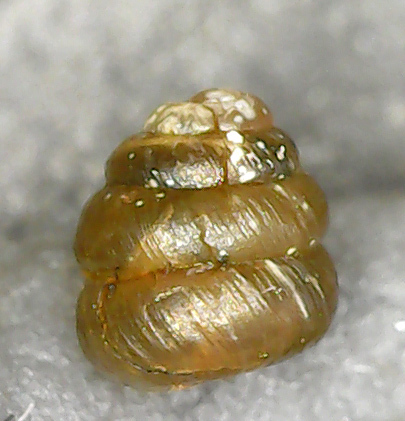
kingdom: Animalia
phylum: Mollusca
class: Gastropoda
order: Stylommatophora
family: Truncatellinidae
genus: Columella
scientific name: Columella aspera
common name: Rough whorl snail
